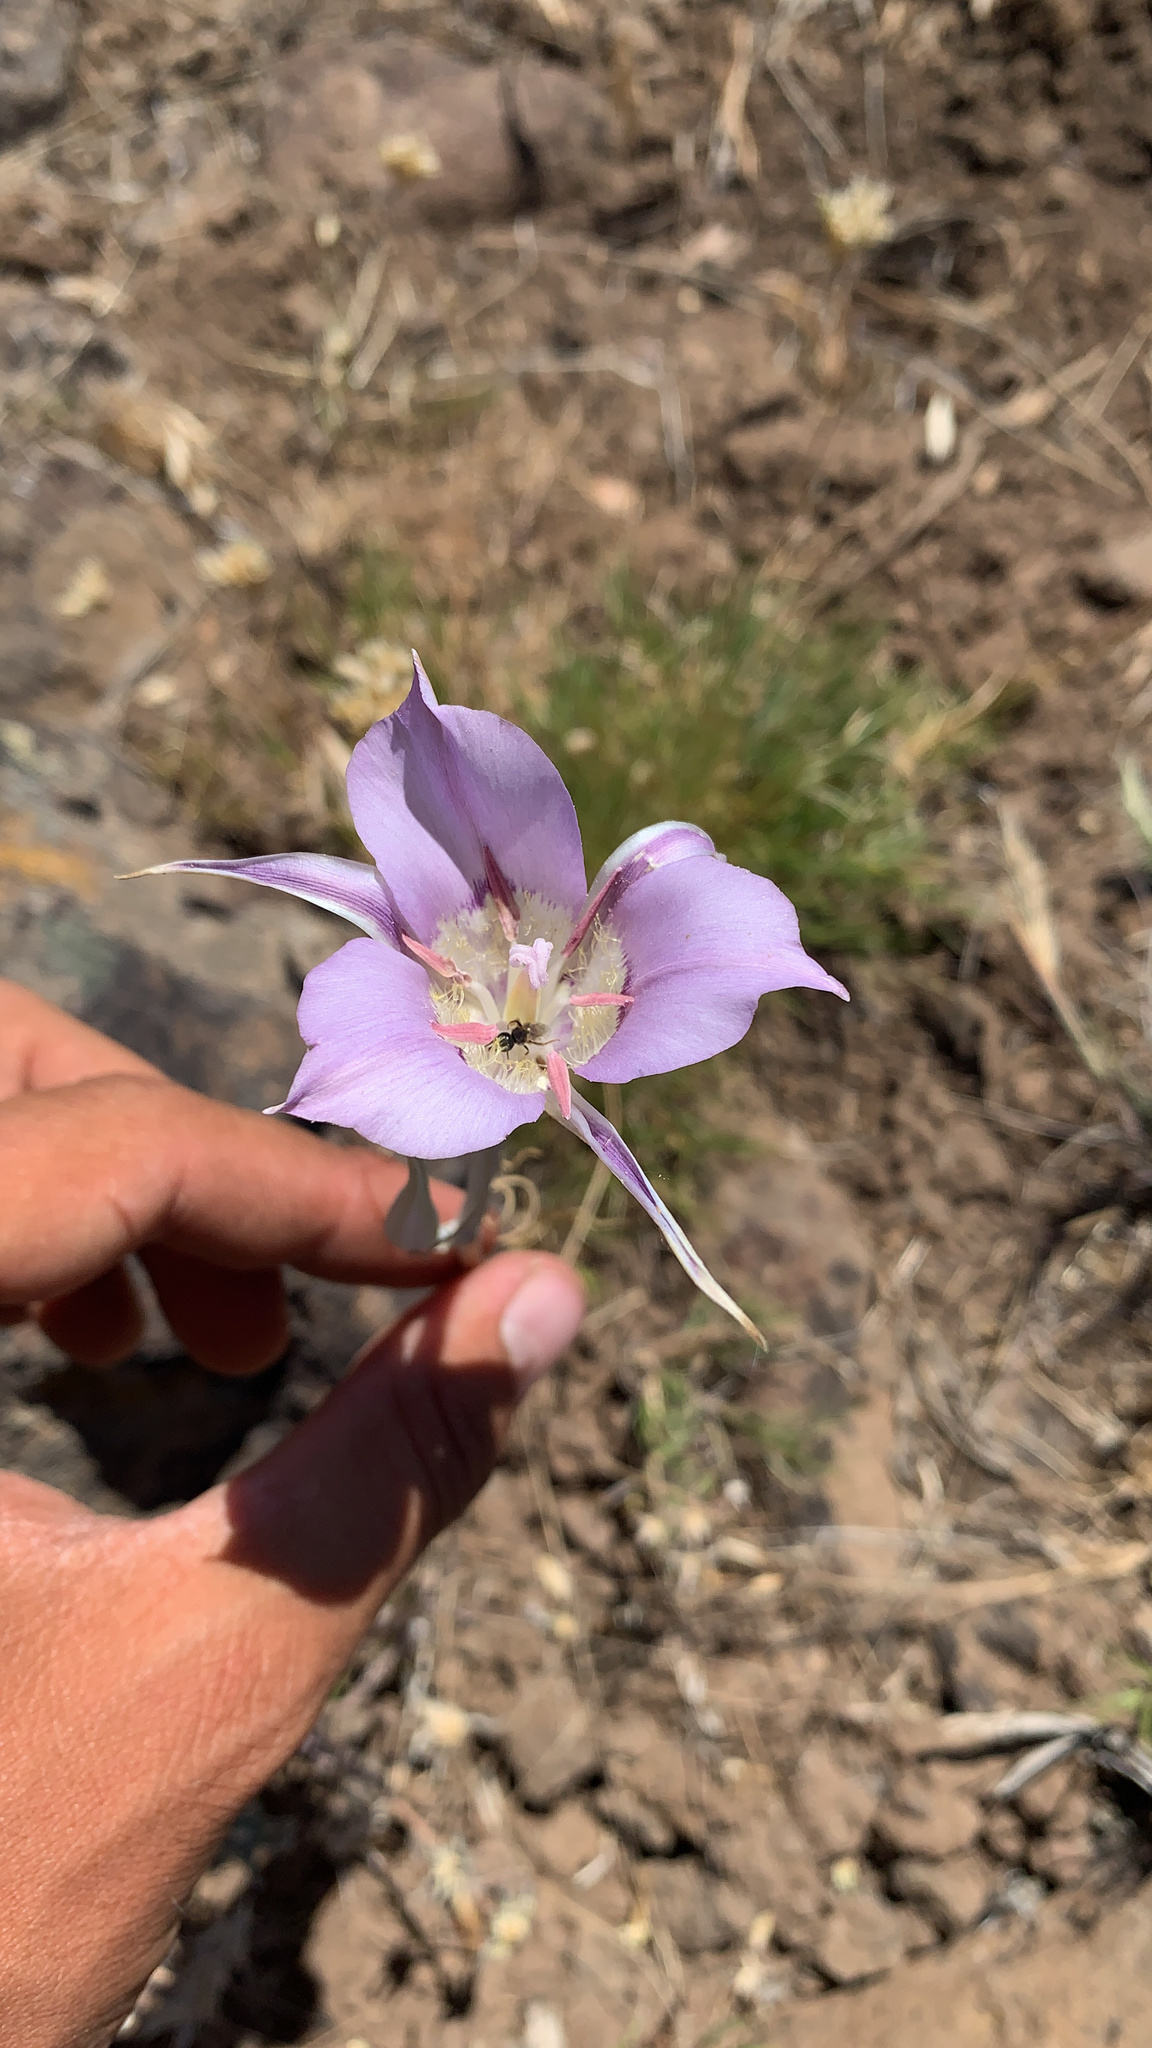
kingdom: Plantae
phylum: Tracheophyta
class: Liliopsida
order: Liliales
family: Liliaceae
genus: Calochortus
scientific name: Calochortus macrocarpus
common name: Green-band mariposa lily
